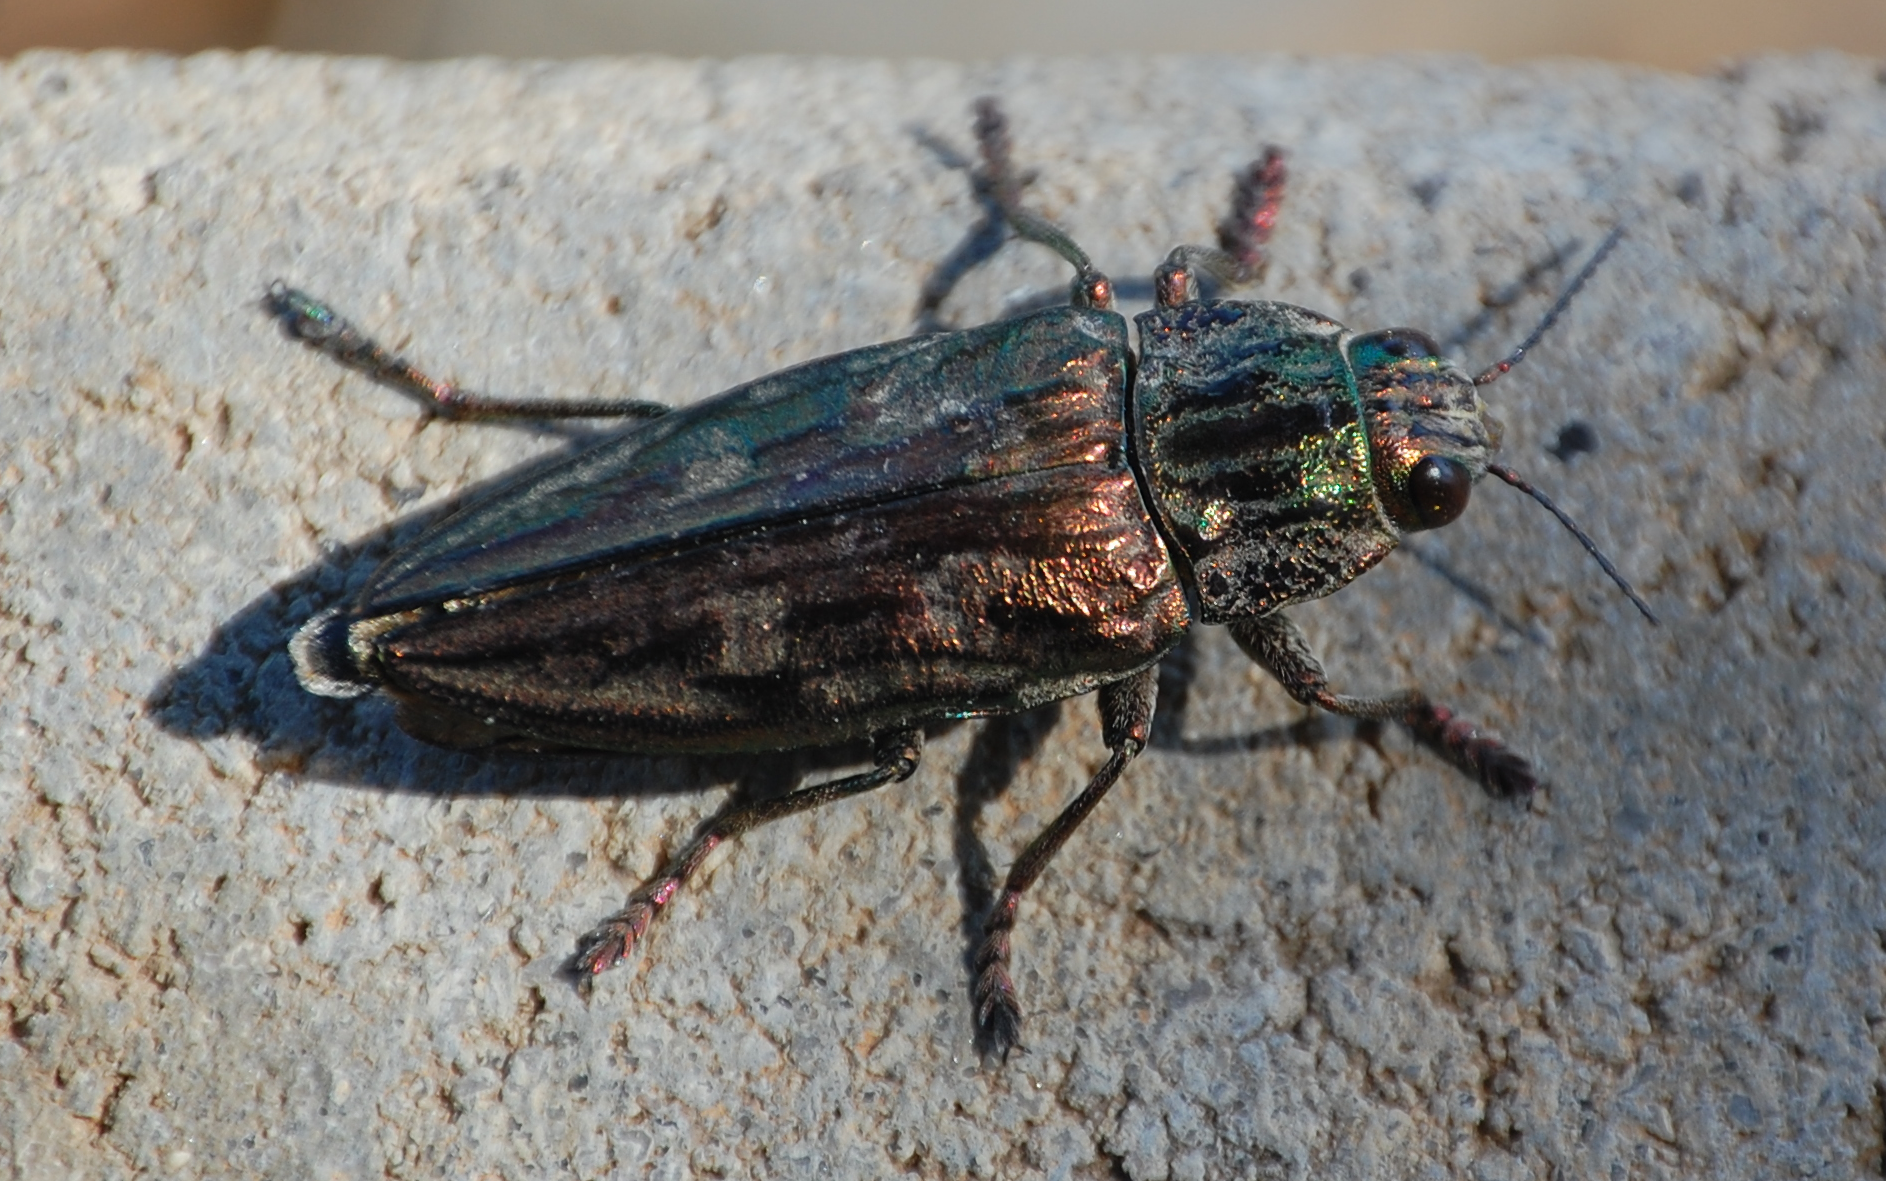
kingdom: Animalia
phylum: Arthropoda
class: Insecta
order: Coleoptera
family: Buprestidae
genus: Chalcophora
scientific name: Chalcophora massiliensis
